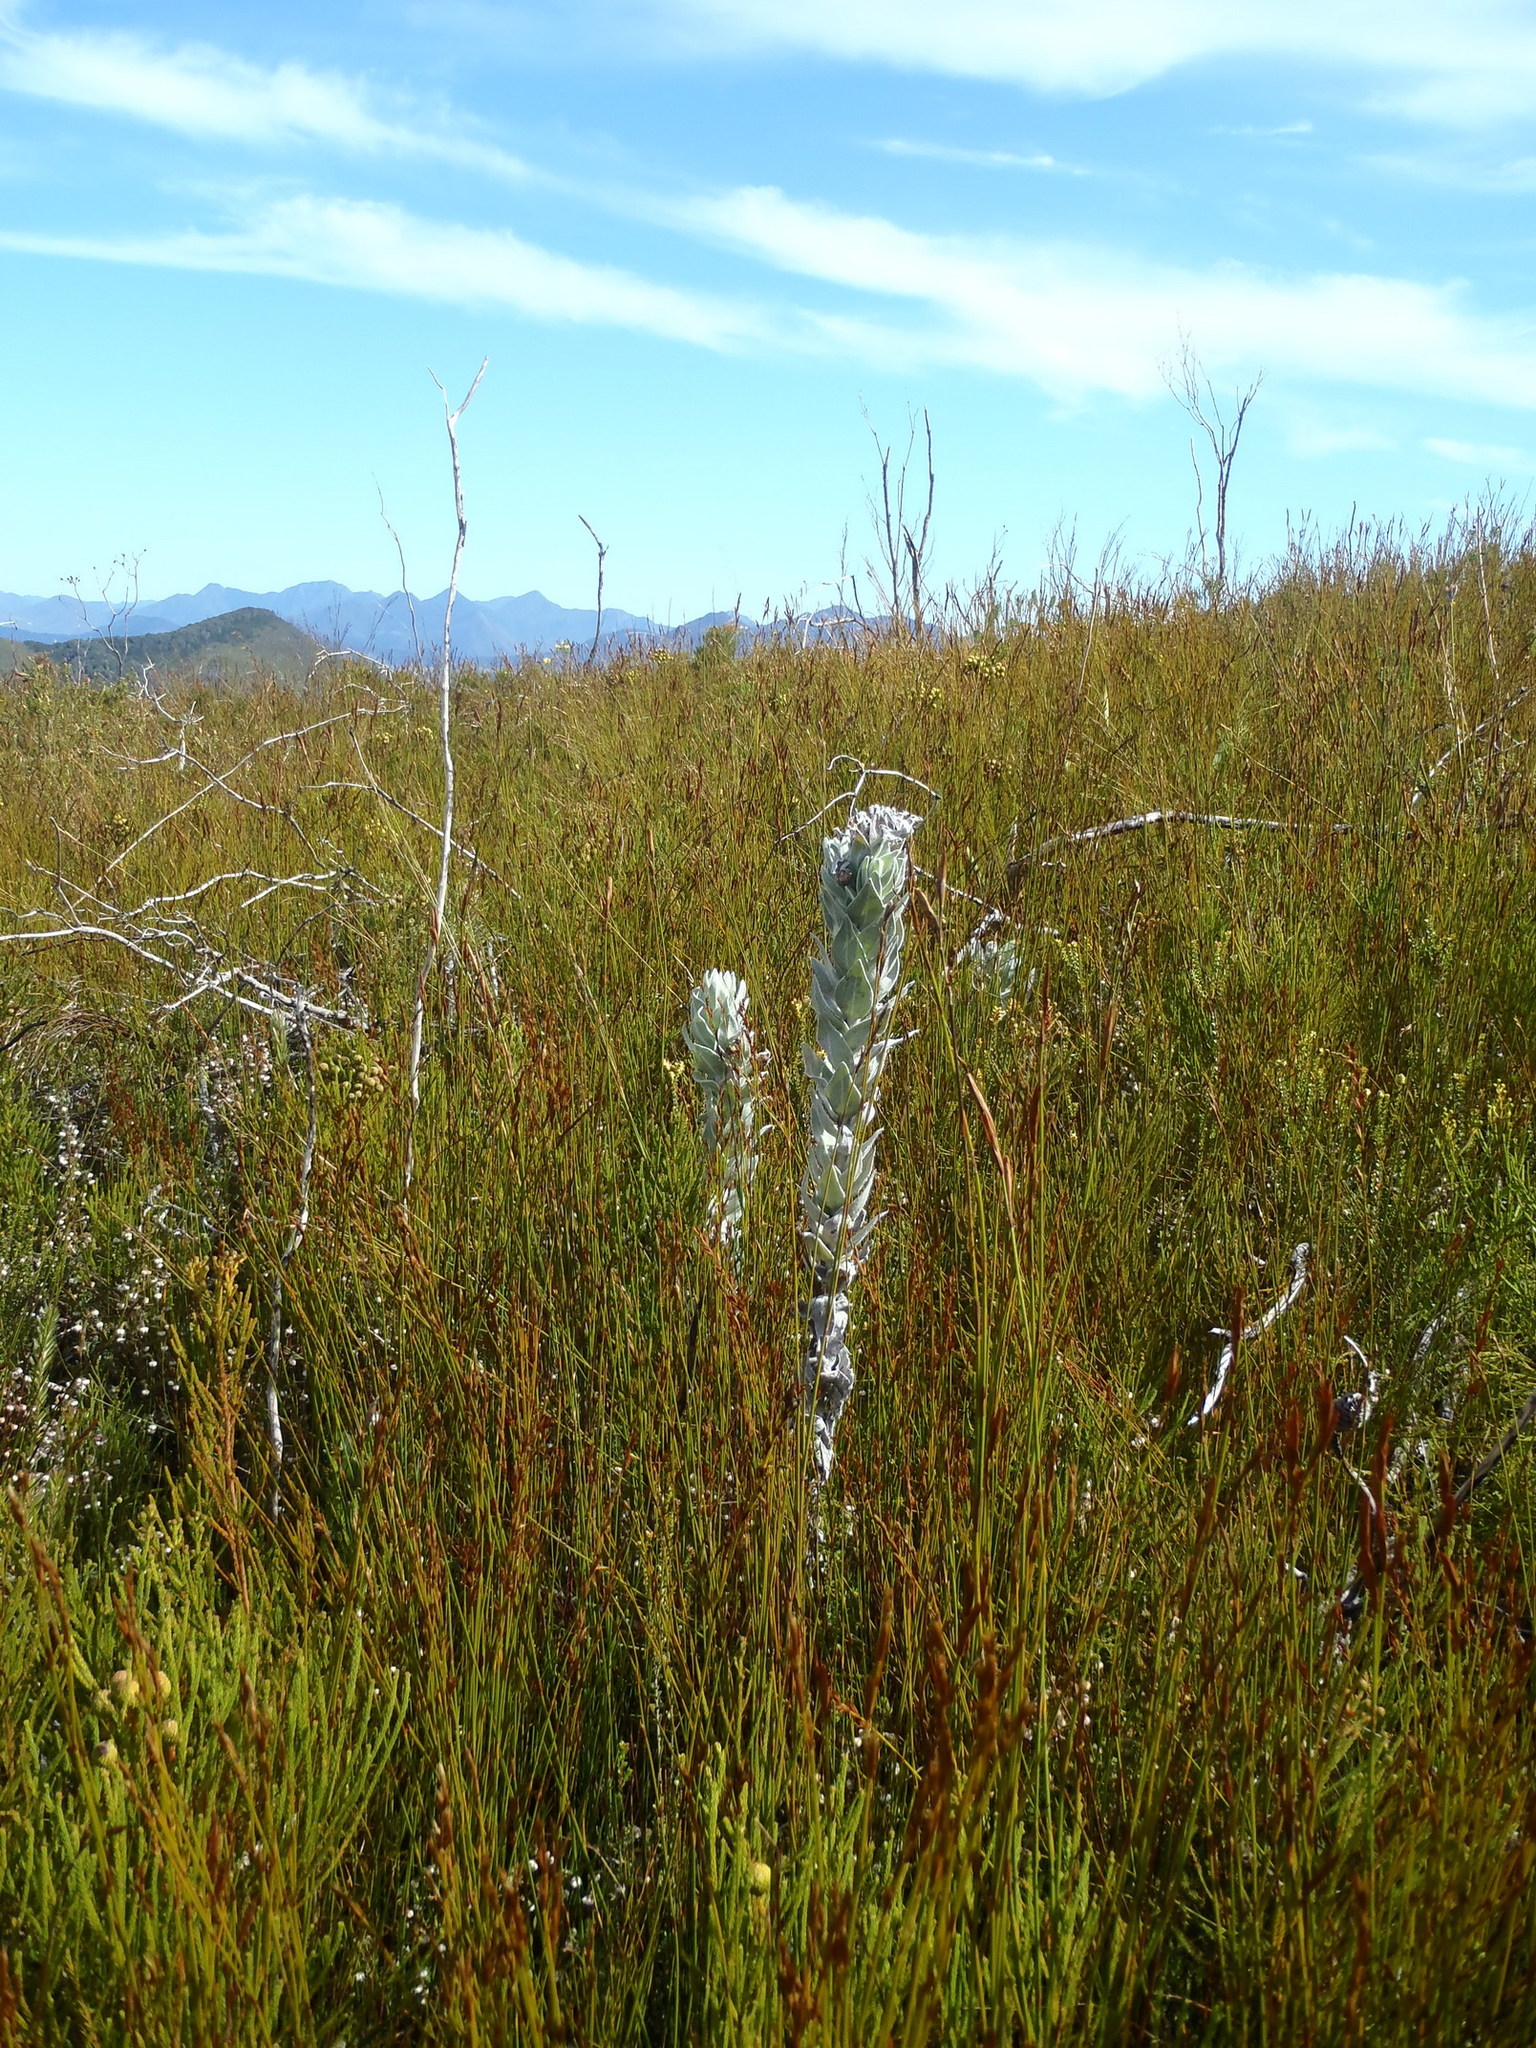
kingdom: Plantae
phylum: Tracheophyta
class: Magnoliopsida
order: Asterales
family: Asteraceae
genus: Syncarpha
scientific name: Syncarpha eximia
